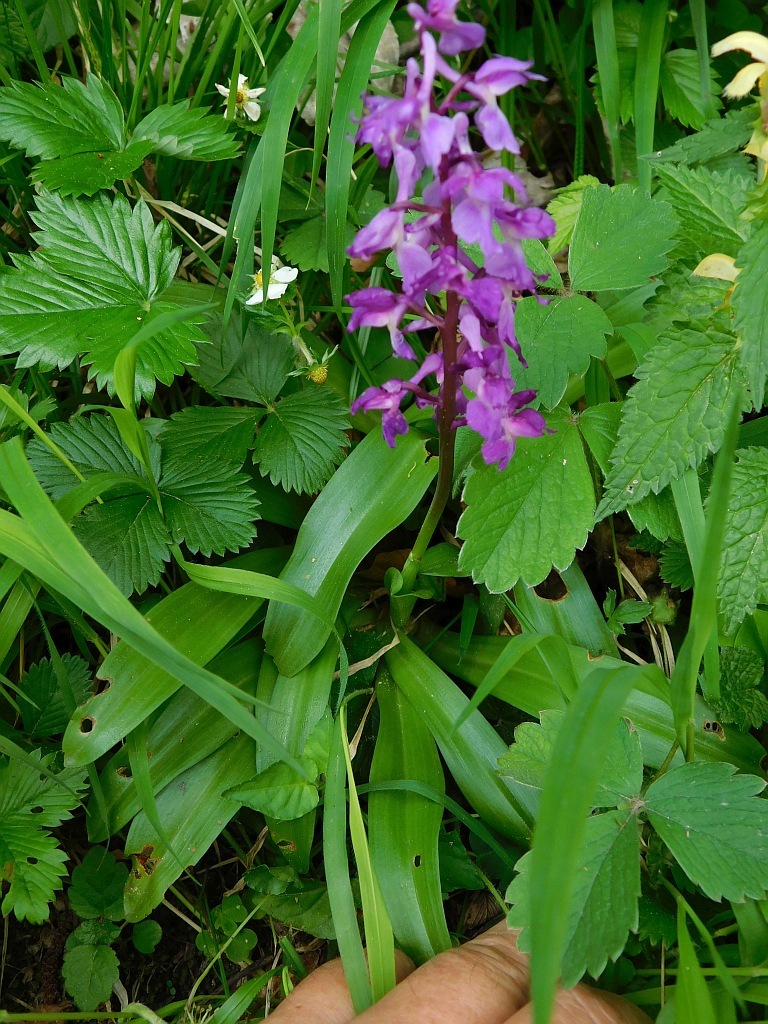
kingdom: Plantae
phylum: Tracheophyta
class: Liliopsida
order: Asparagales
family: Orchidaceae
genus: Orchis
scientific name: Orchis mascula
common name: Early-purple orchid
